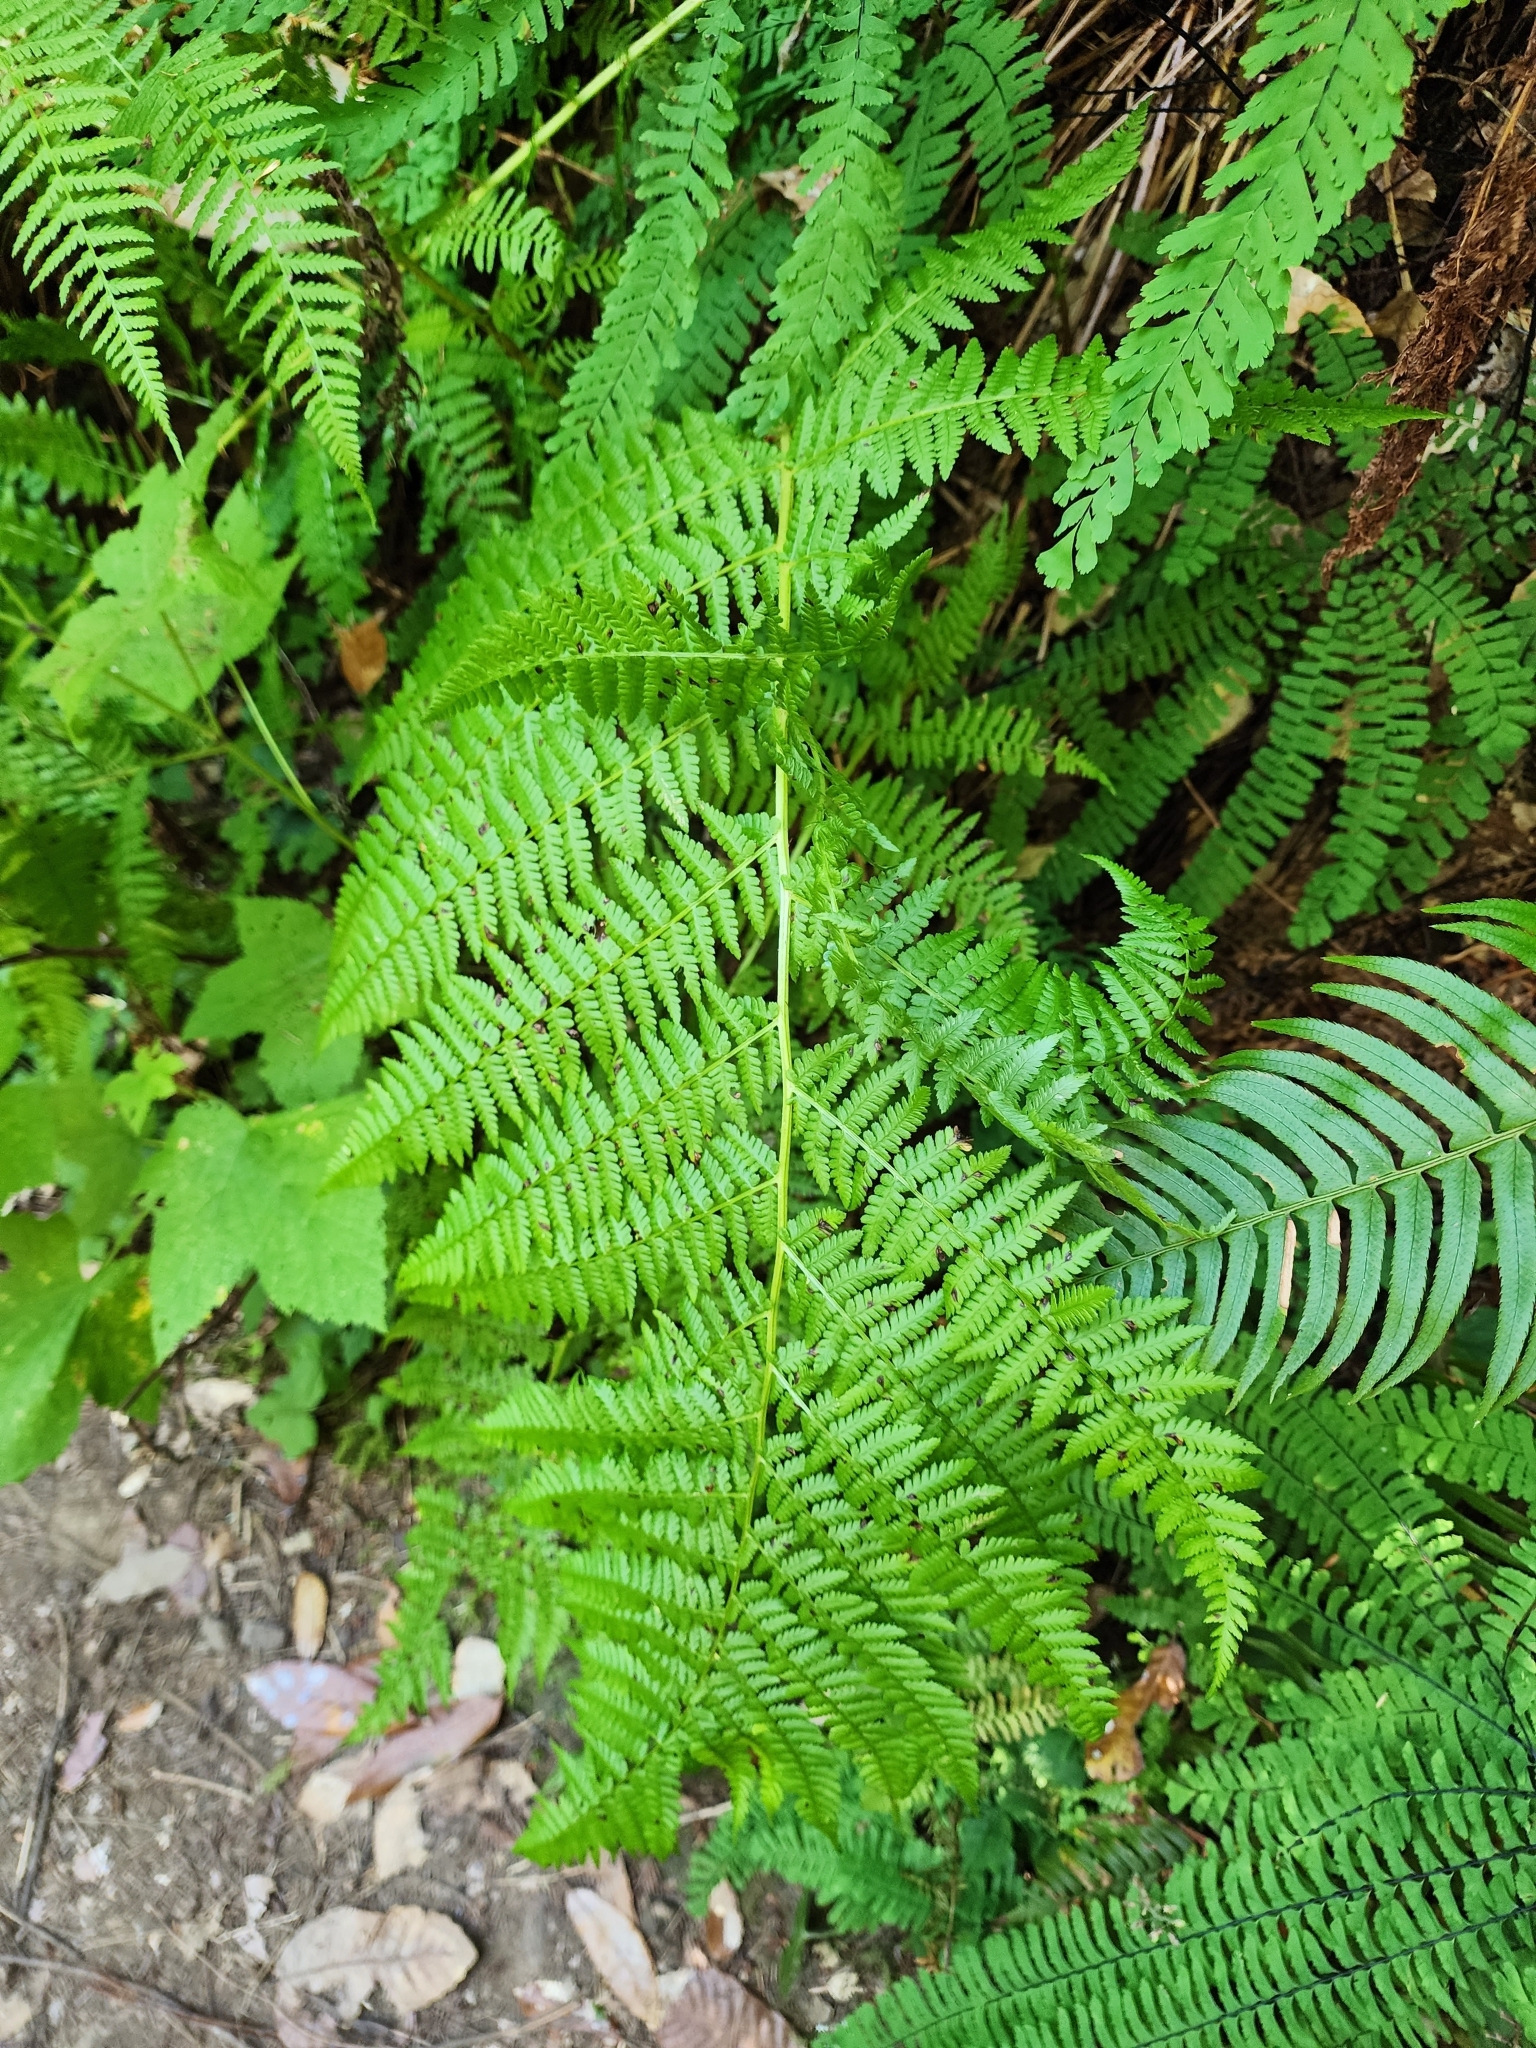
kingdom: Plantae
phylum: Tracheophyta
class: Polypodiopsida
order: Polypodiales
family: Athyriaceae
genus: Athyrium
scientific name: Athyrium filix-femina
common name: Lady fern
